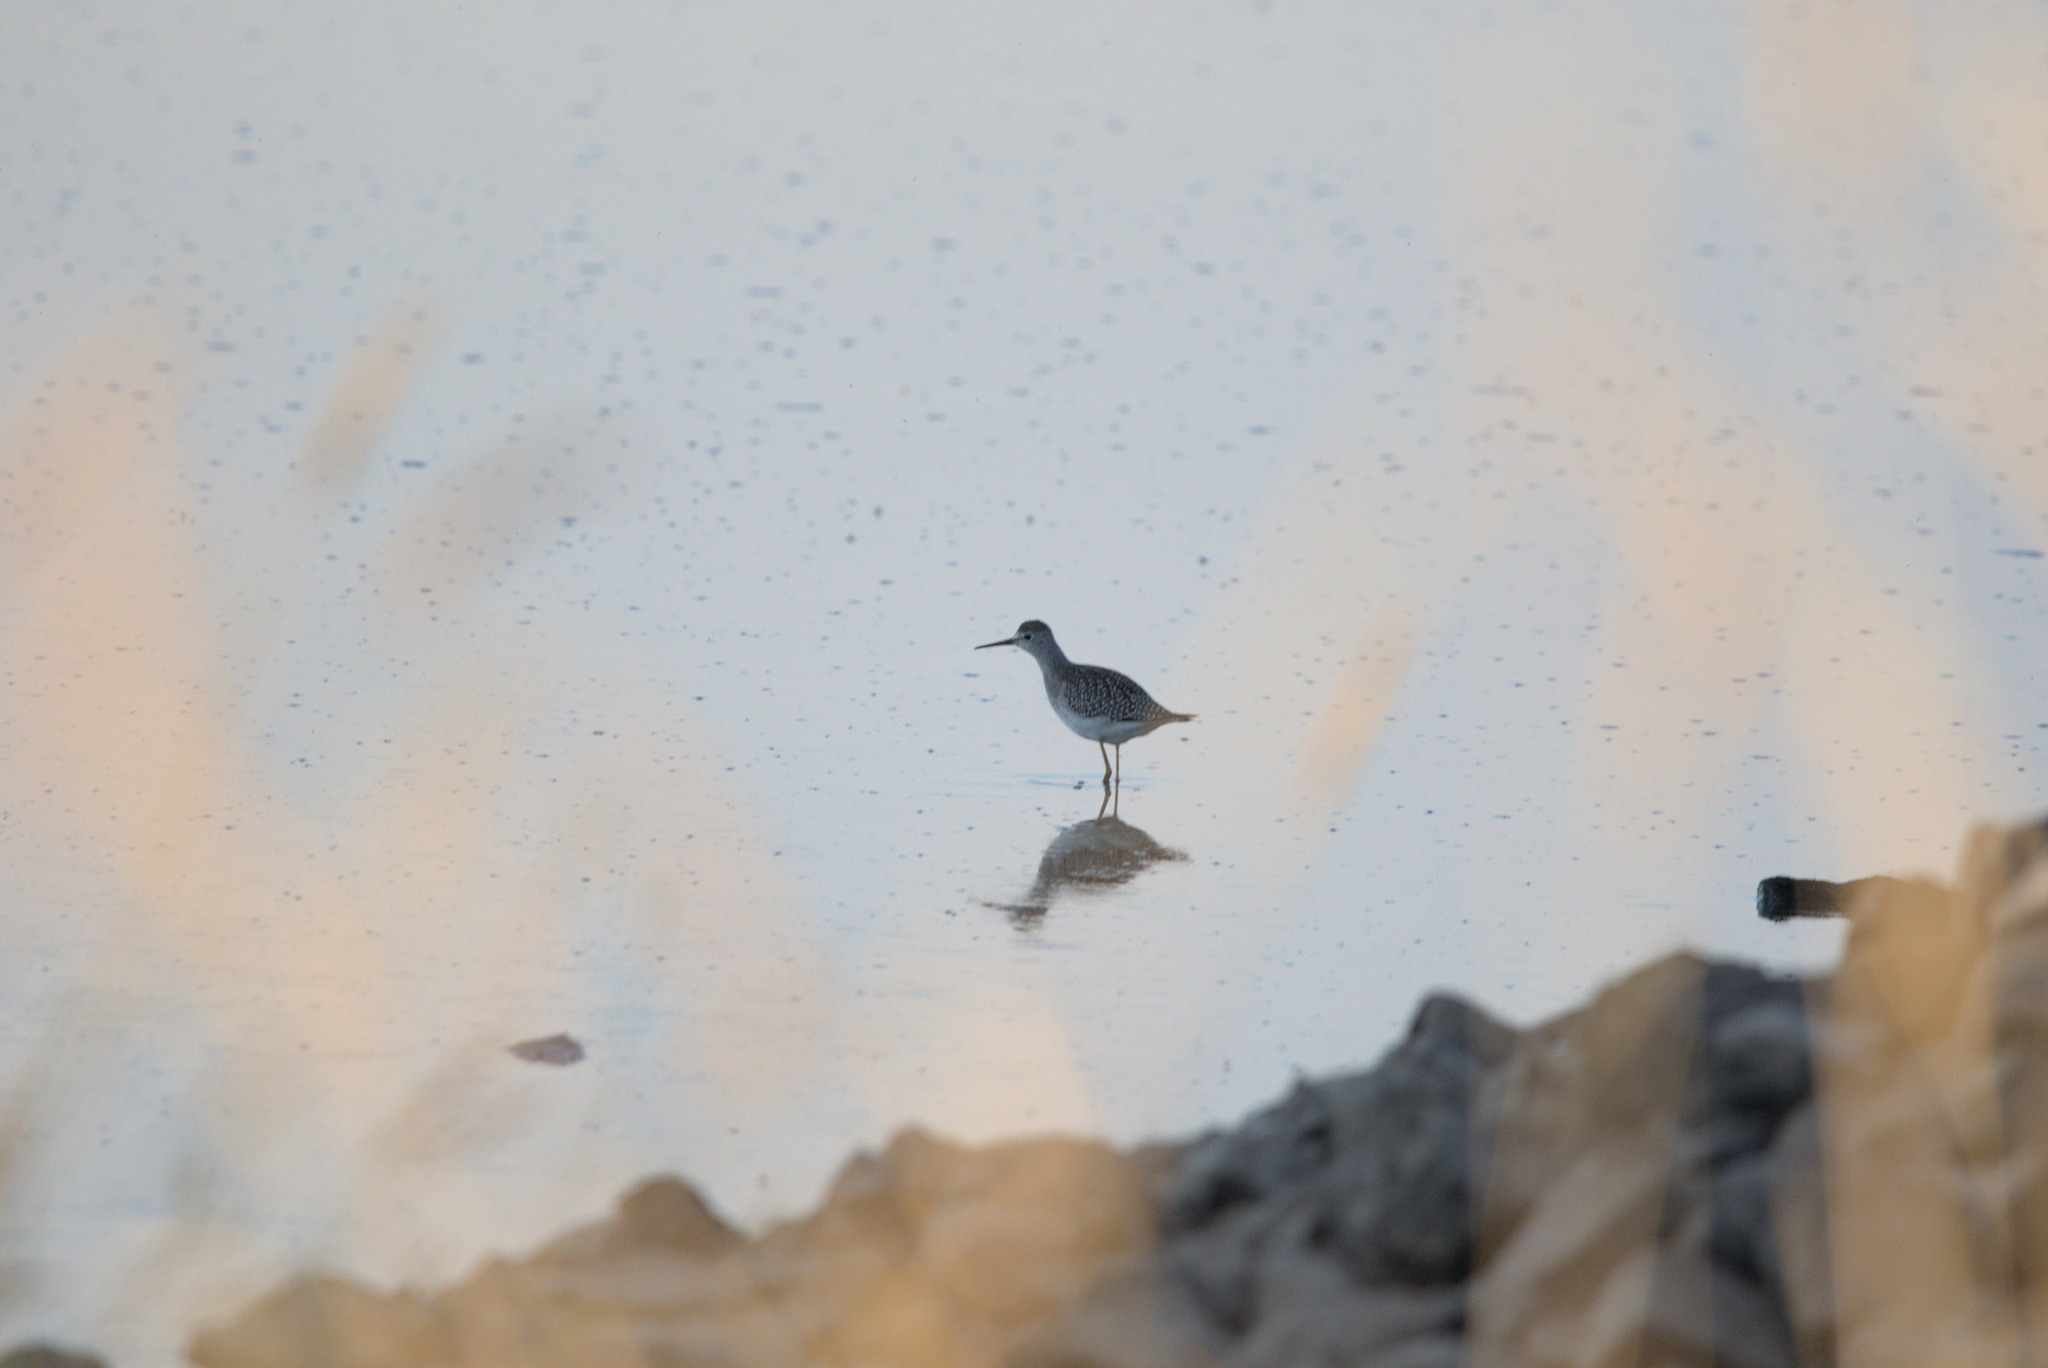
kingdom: Animalia
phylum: Chordata
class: Aves
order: Charadriiformes
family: Scolopacidae
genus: Tringa
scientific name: Tringa flavipes
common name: Lesser yellowlegs
